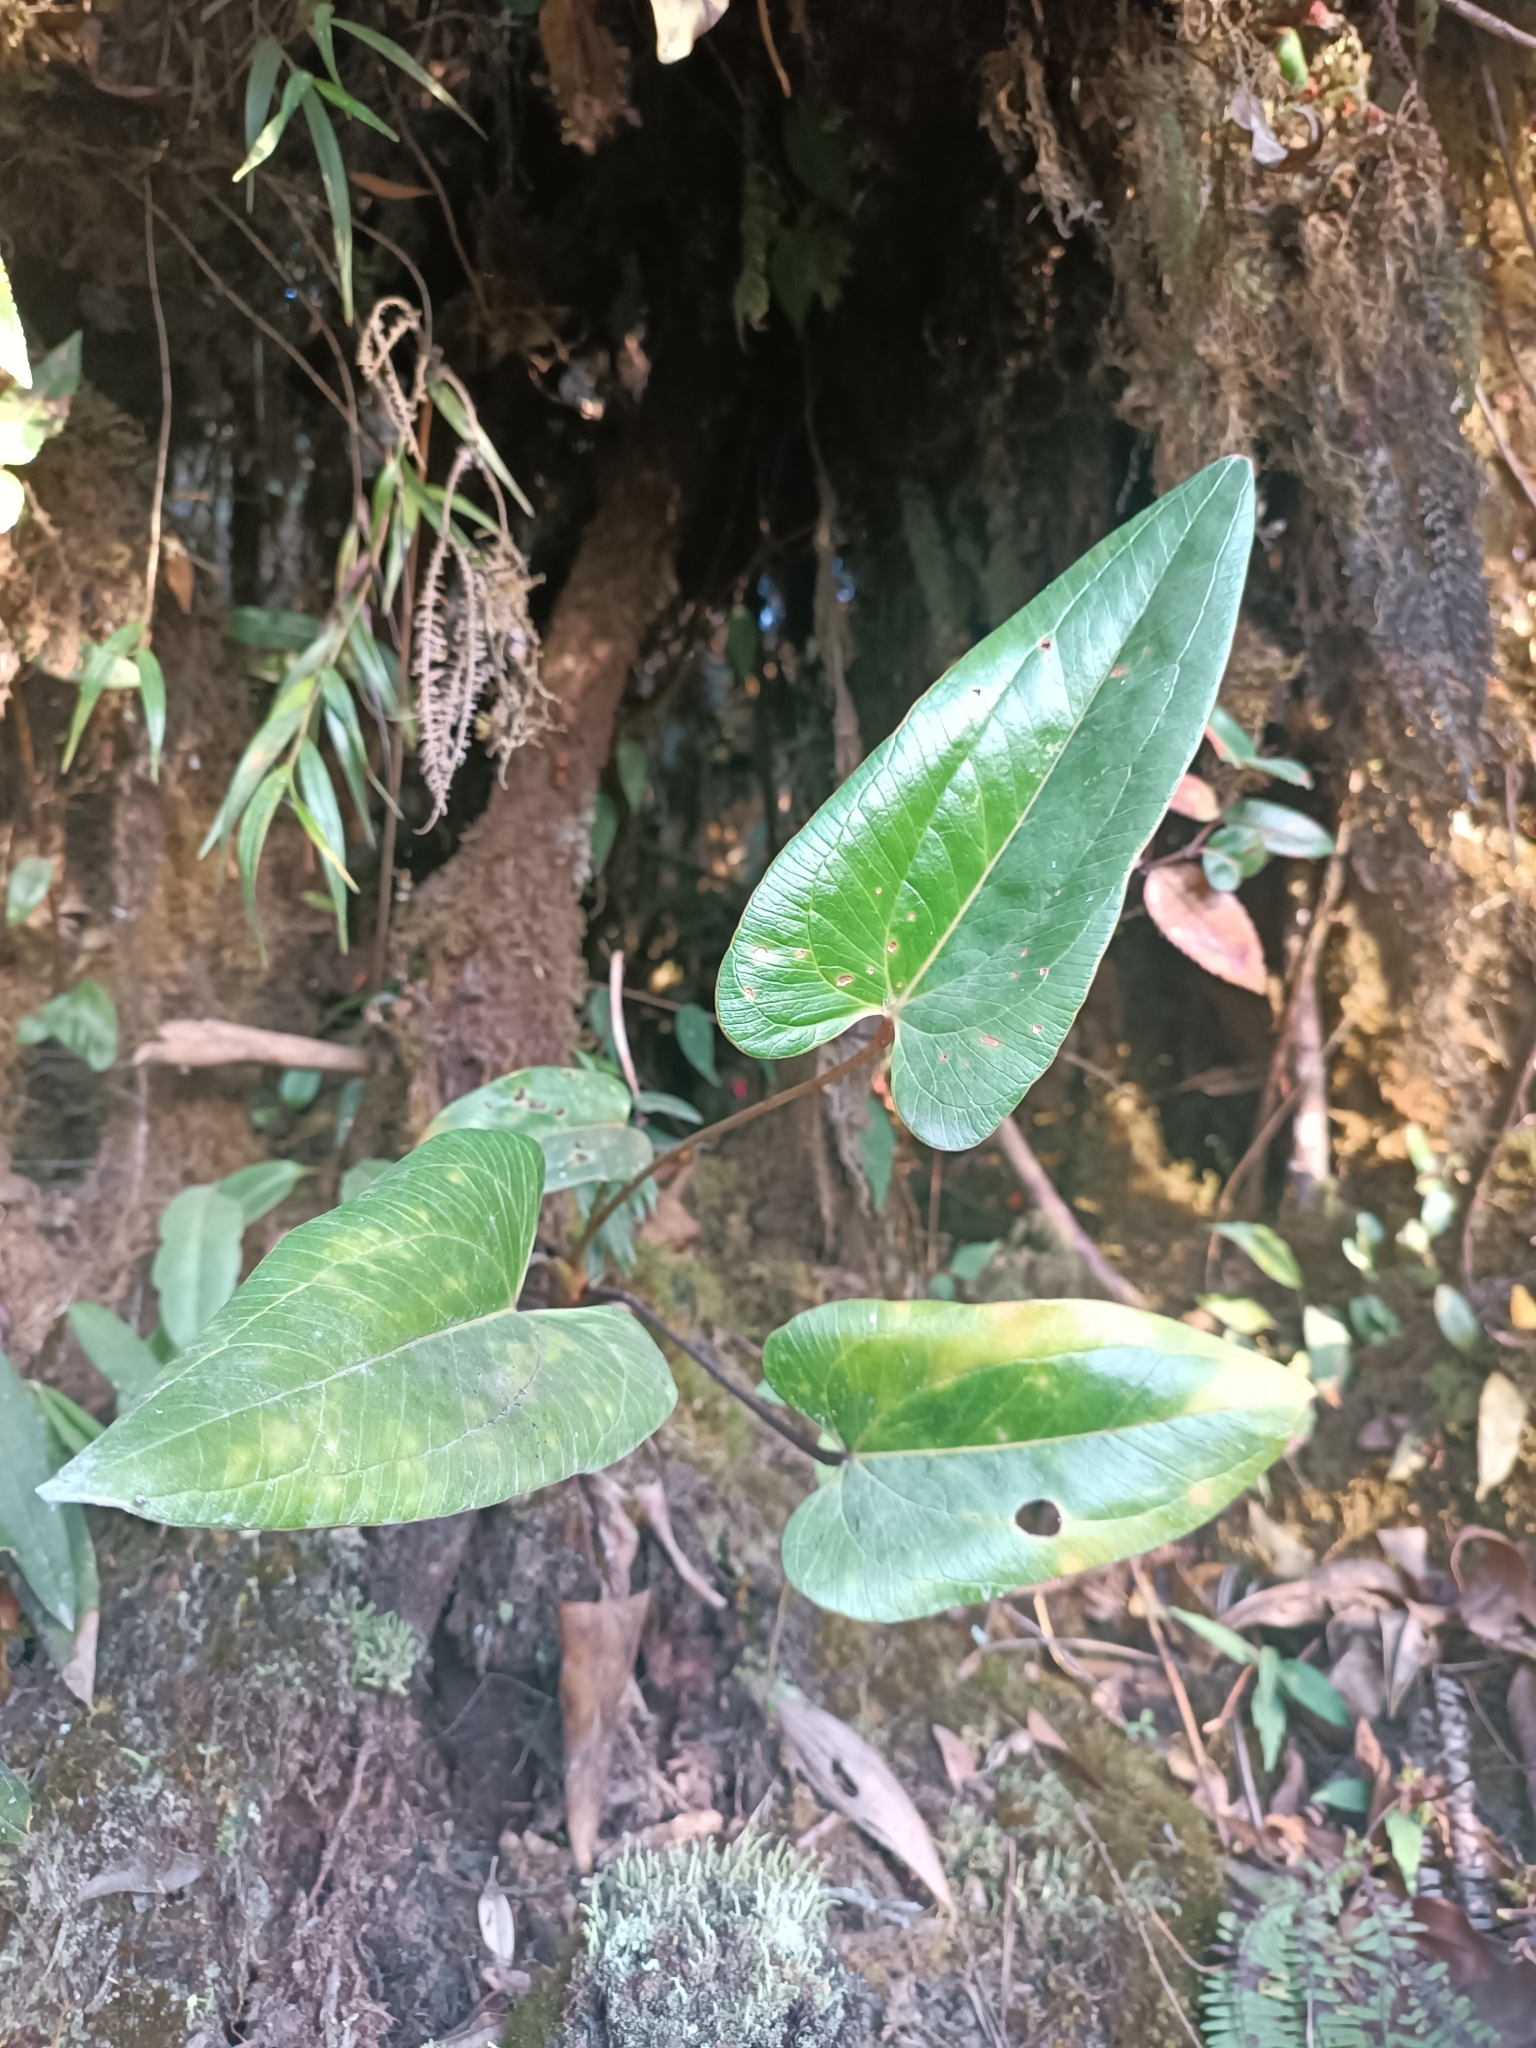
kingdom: Plantae
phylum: Tracheophyta
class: Liliopsida
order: Alismatales
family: Araceae
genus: Anthurium
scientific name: Anthurium lechlerianum
